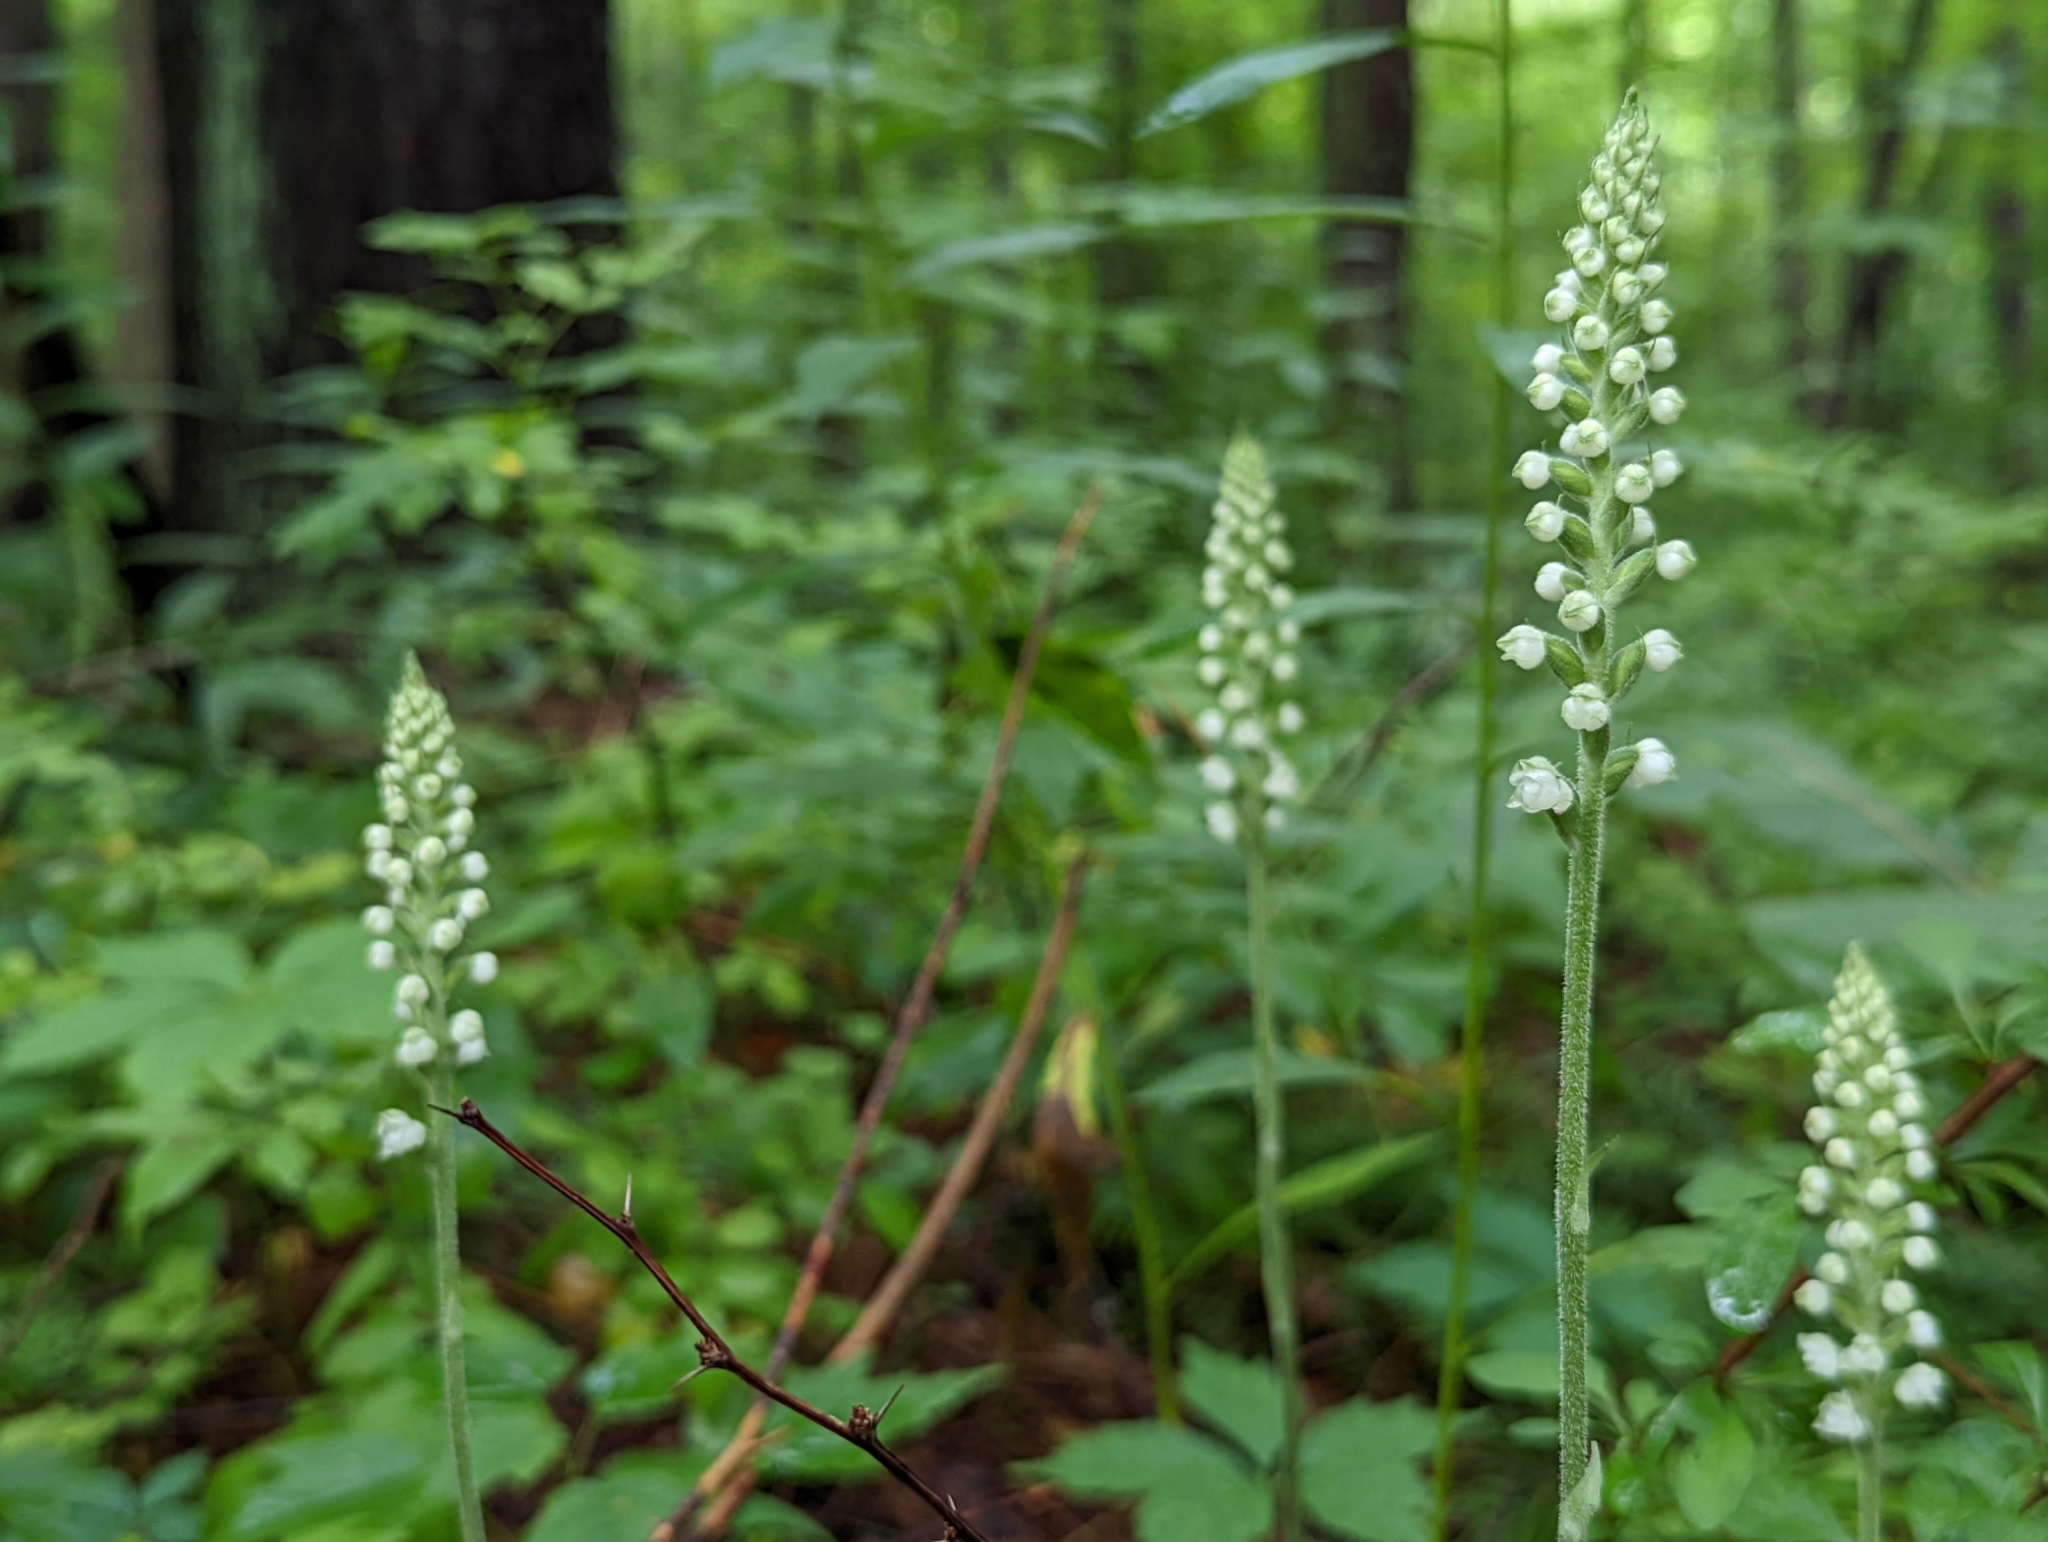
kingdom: Plantae
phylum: Tracheophyta
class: Liliopsida
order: Asparagales
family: Orchidaceae
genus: Goodyera
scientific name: Goodyera pubescens
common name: Downy rattlesnake-plantain
